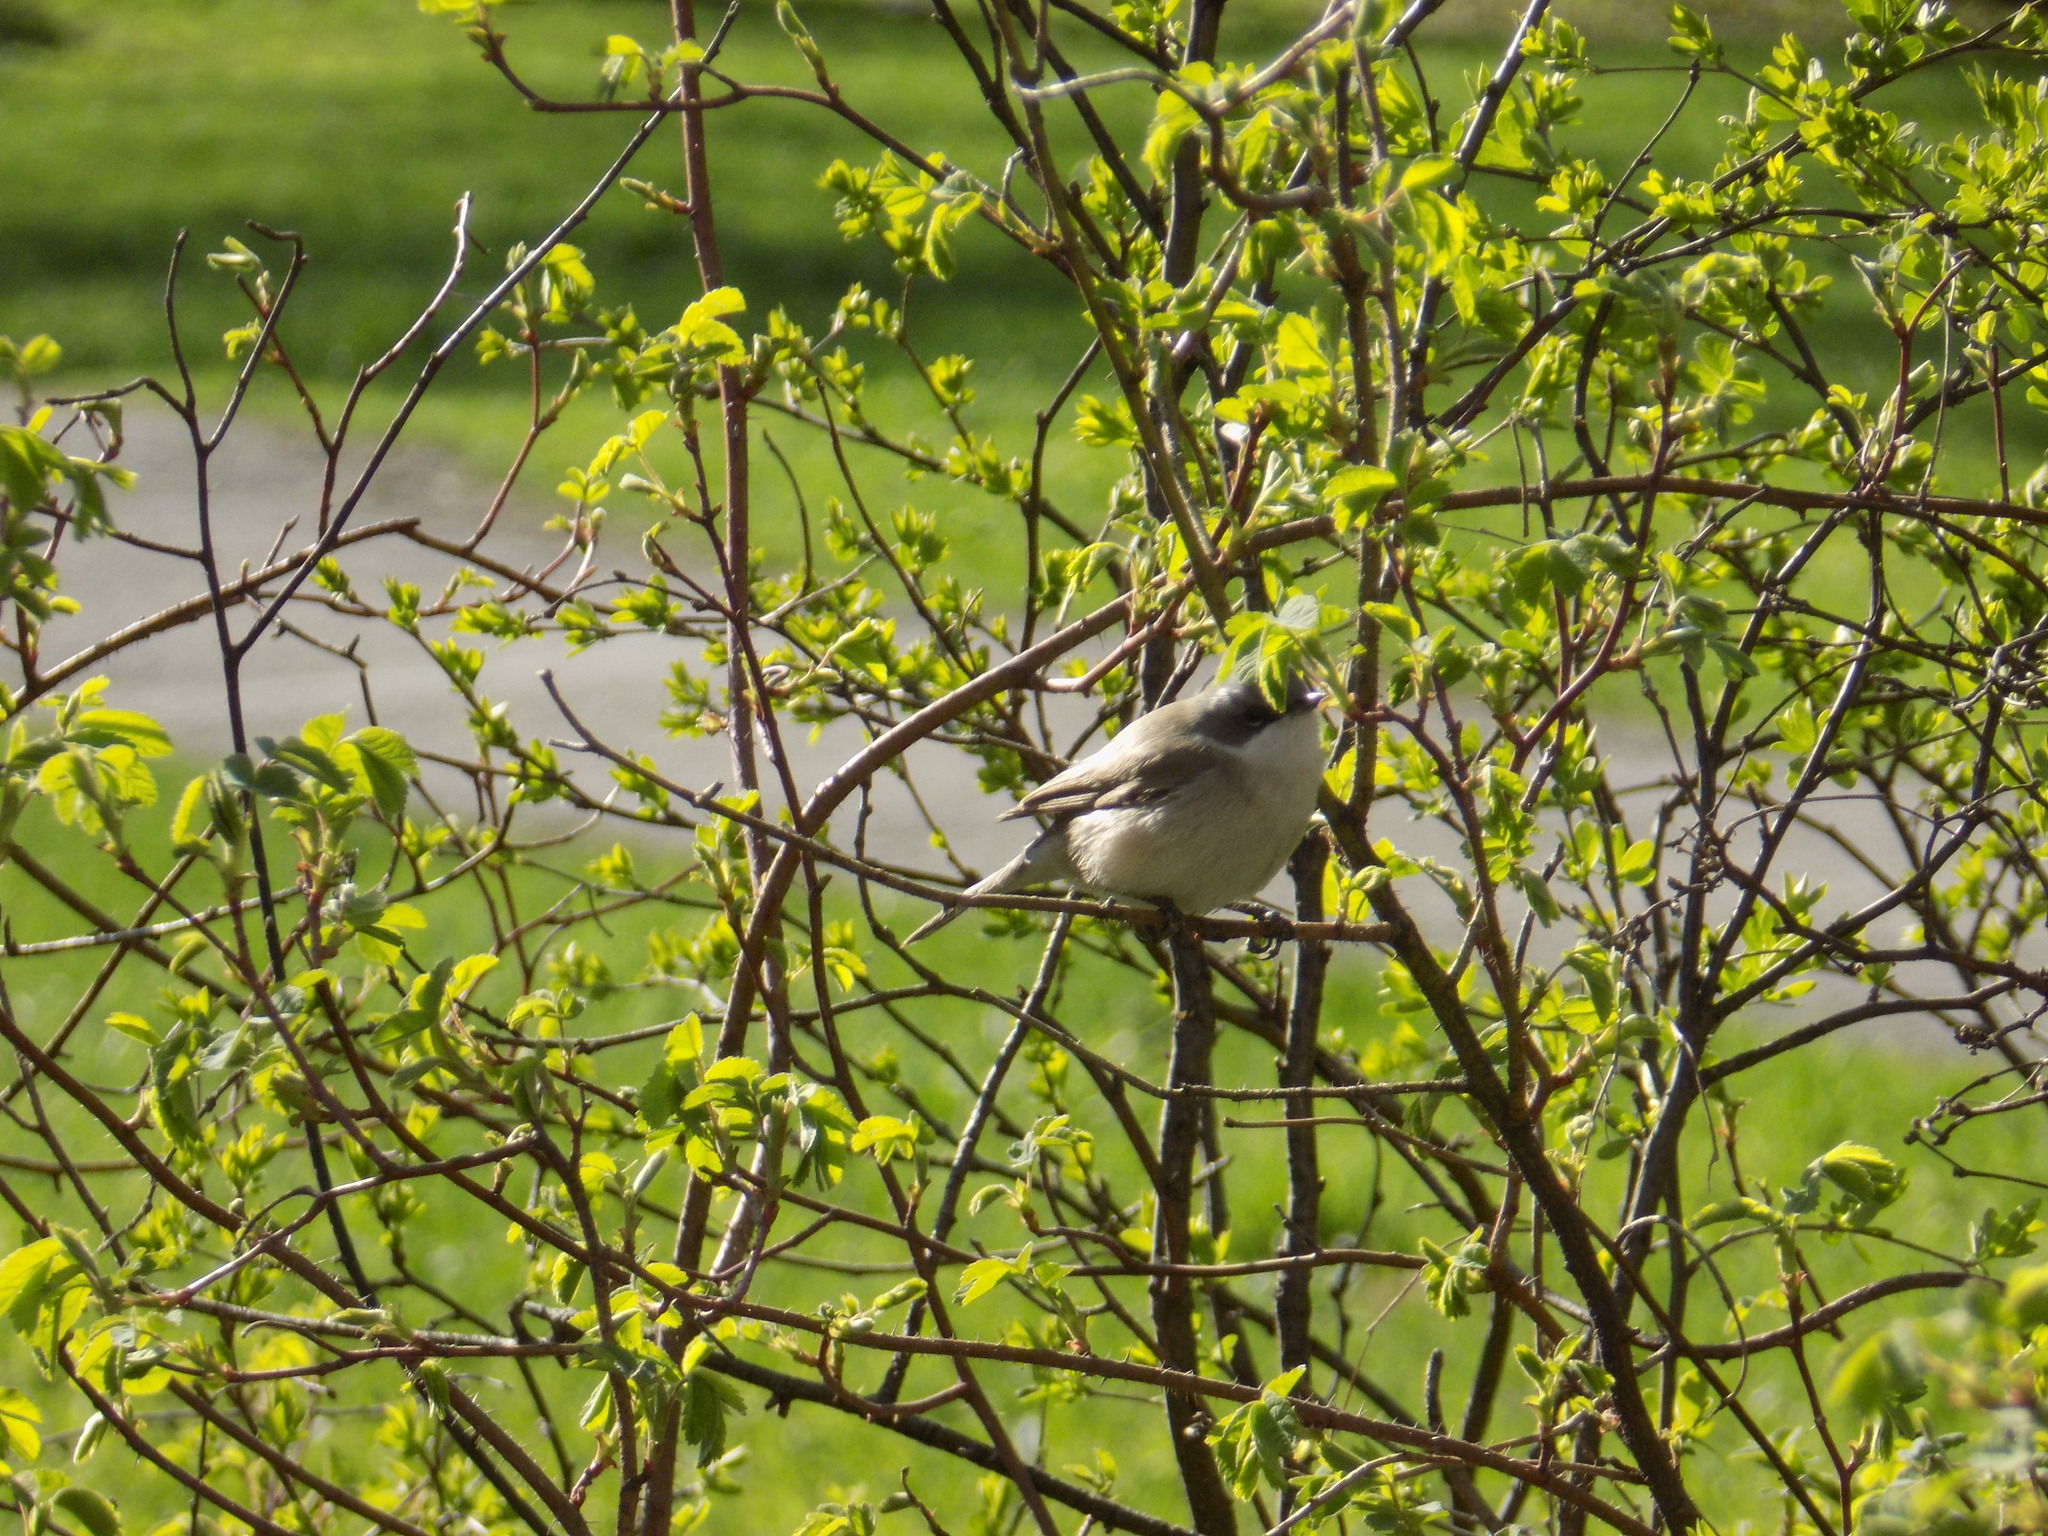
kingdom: Animalia
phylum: Chordata
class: Aves
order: Passeriformes
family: Sylviidae
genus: Sylvia
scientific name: Sylvia curruca
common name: Lesser whitethroat
